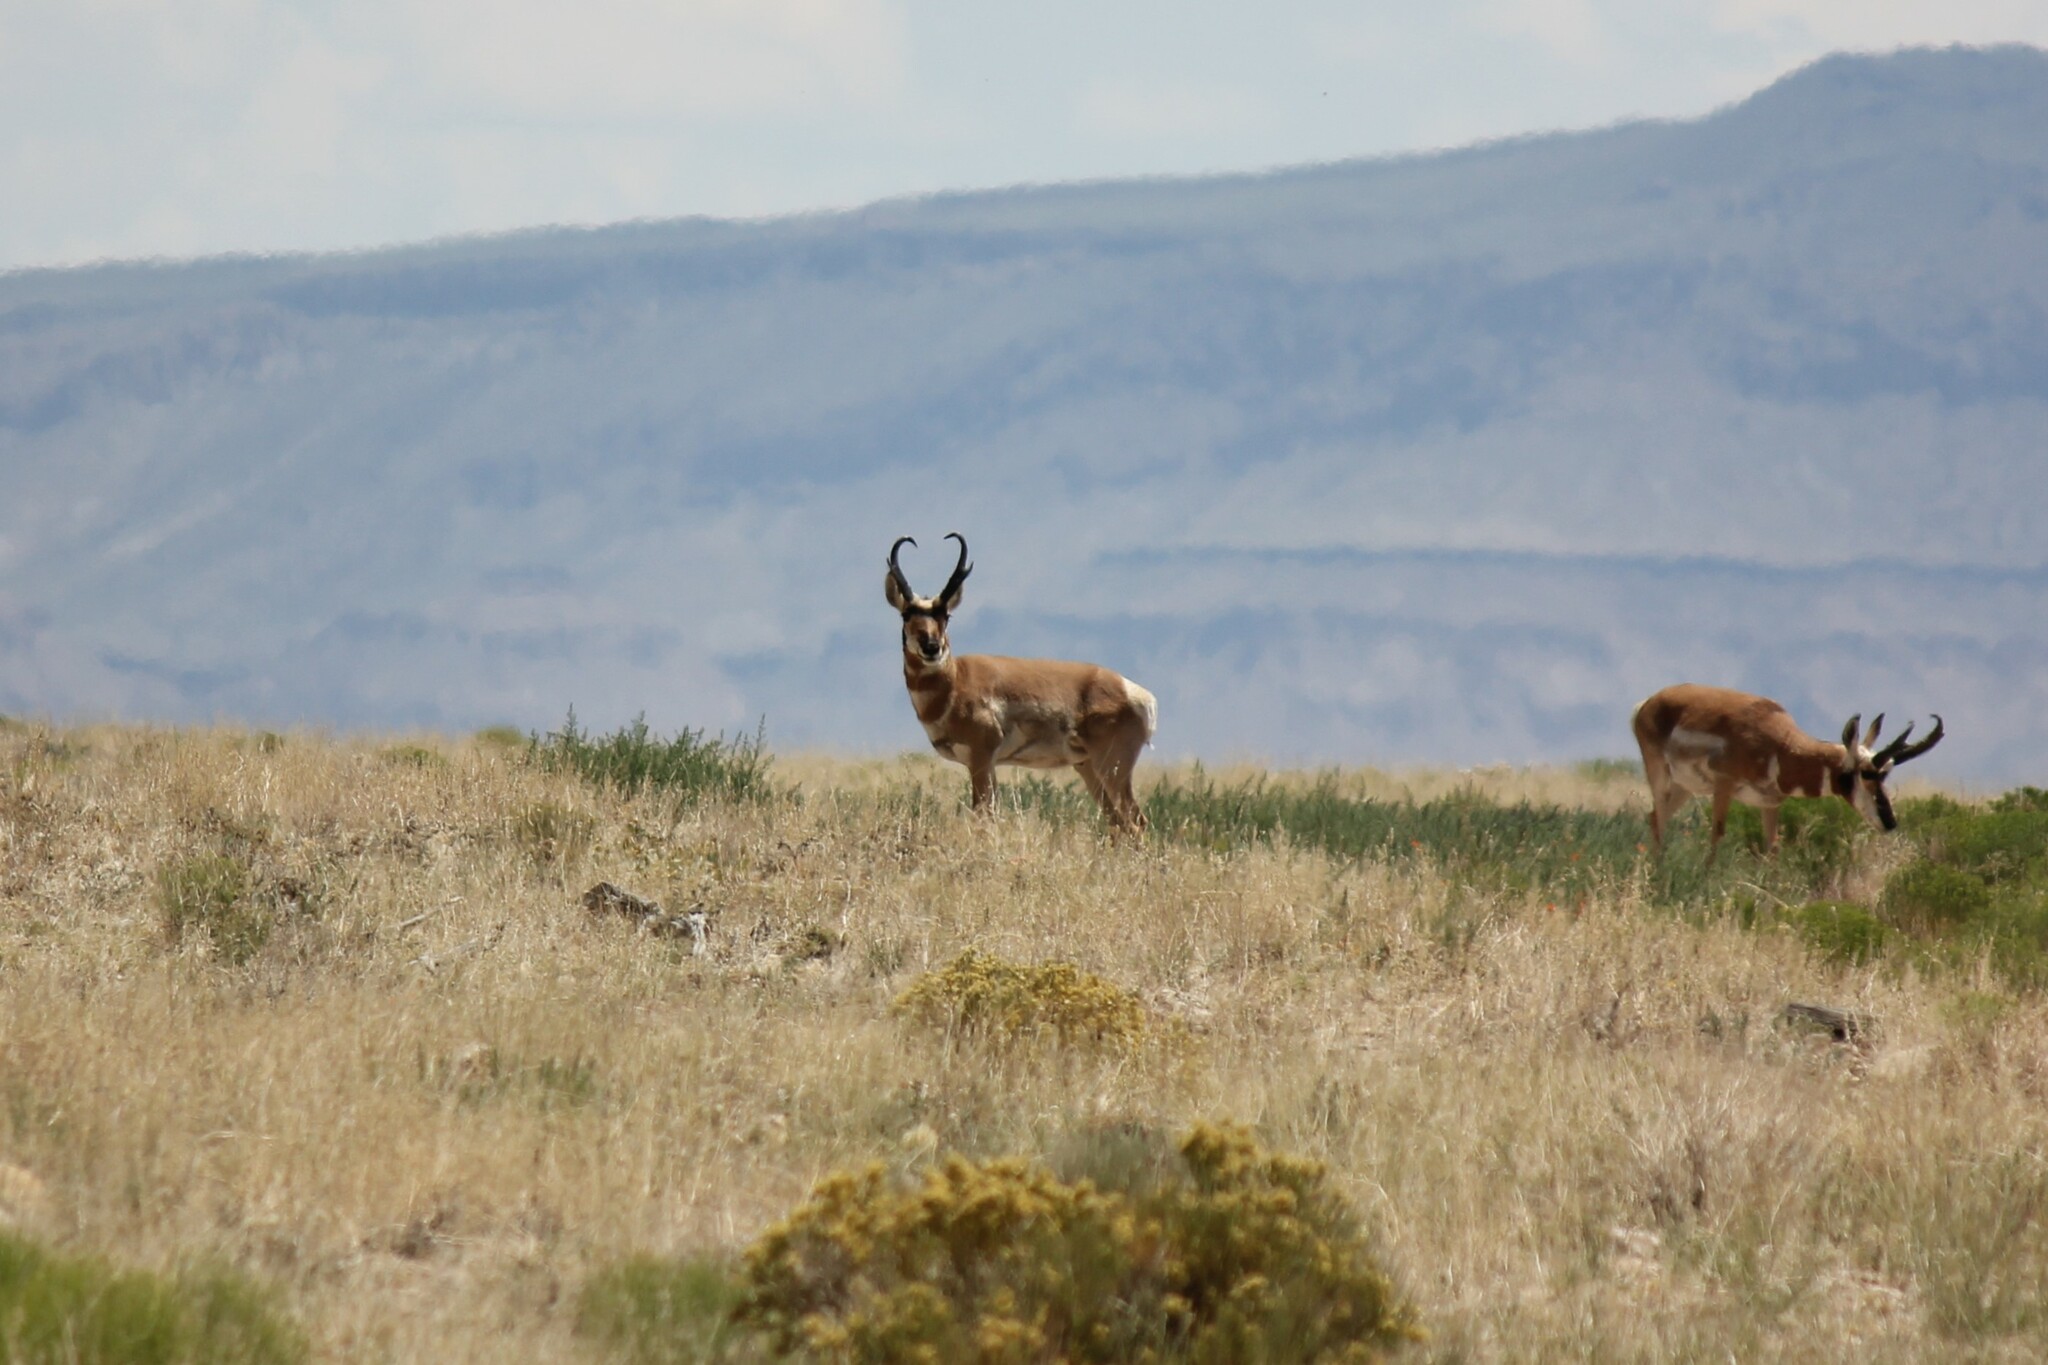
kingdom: Animalia
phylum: Chordata
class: Mammalia
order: Artiodactyla
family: Antilocapridae
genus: Antilocapra
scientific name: Antilocapra americana
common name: Pronghorn
